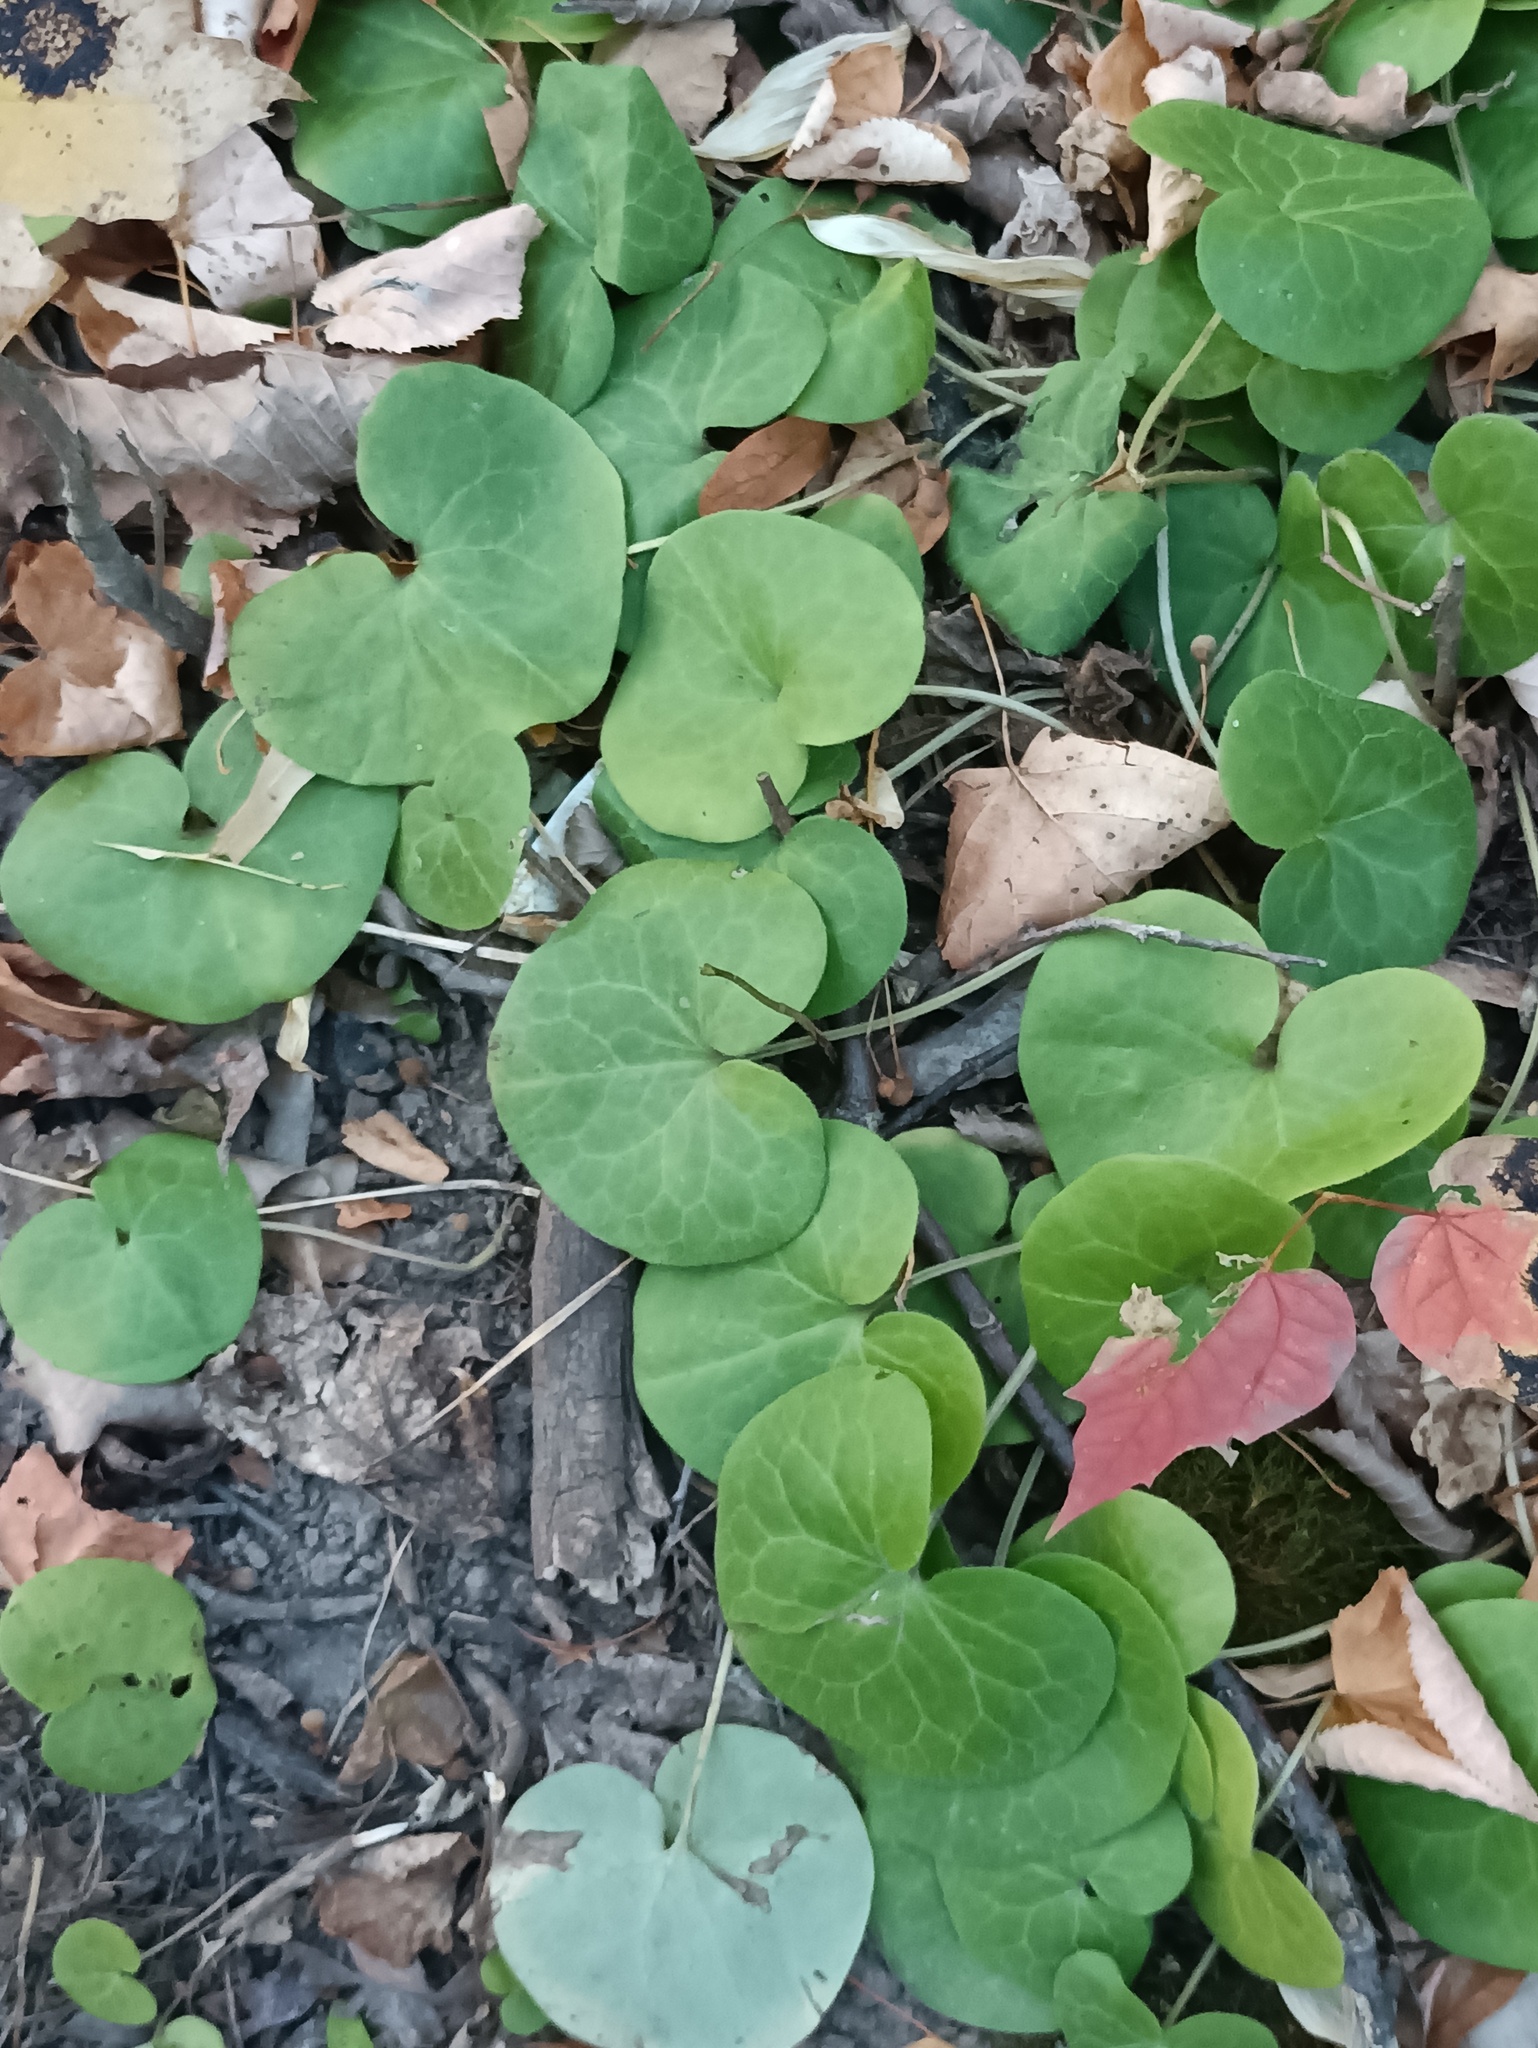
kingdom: Plantae
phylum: Tracheophyta
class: Magnoliopsida
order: Piperales
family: Aristolochiaceae
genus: Asarum
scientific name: Asarum europaeum
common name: Asarabacca
